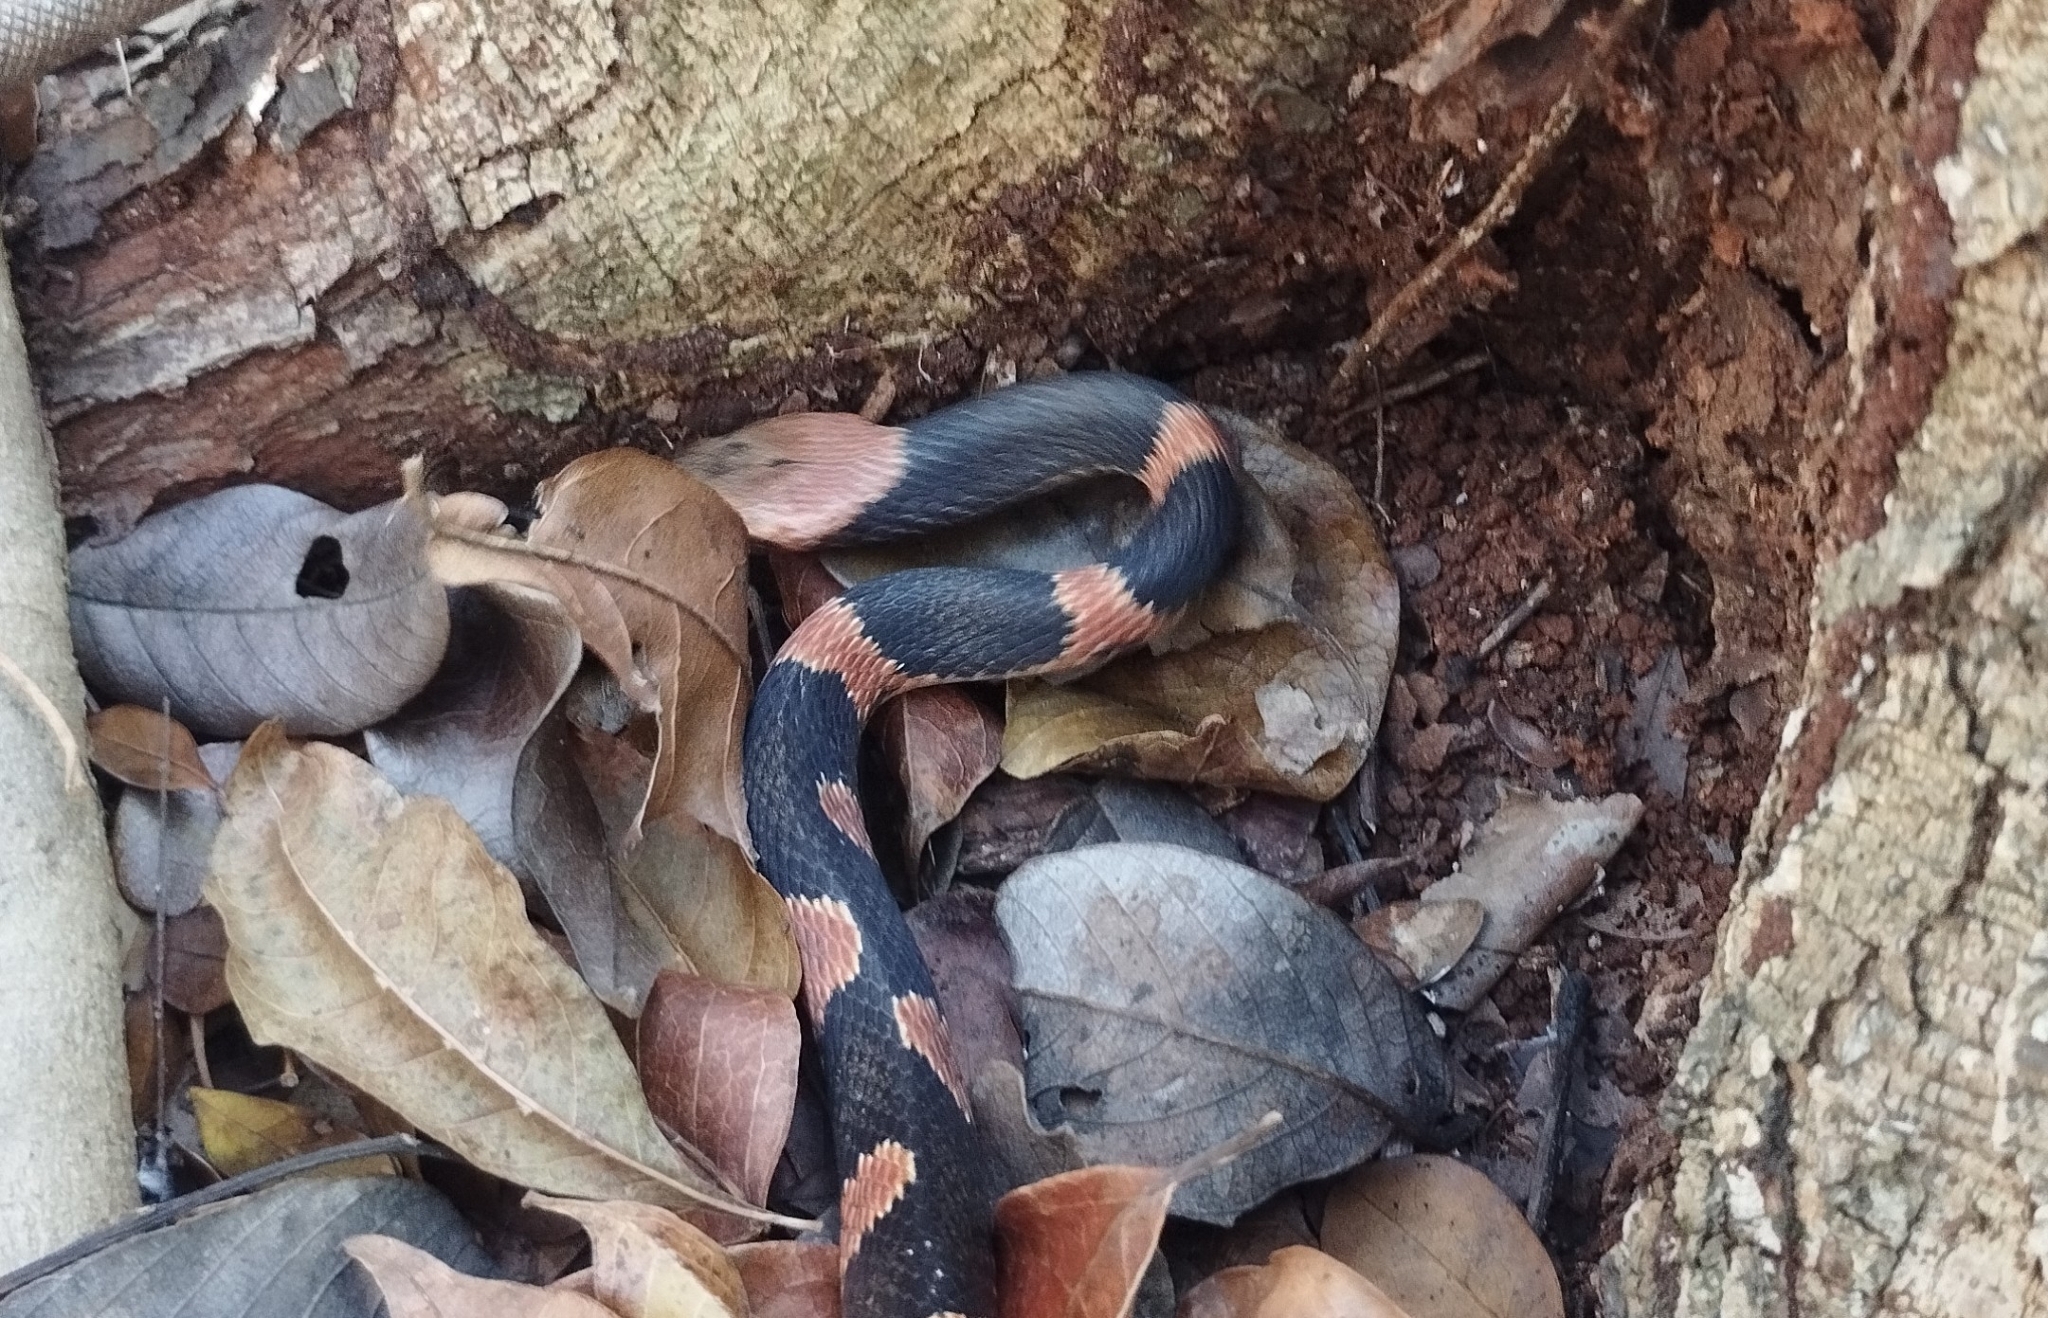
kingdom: Animalia
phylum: Chordata
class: Squamata
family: Colubridae
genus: Leptodeira
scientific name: Leptodeira frenata
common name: Rainforest cat-eyed snake
